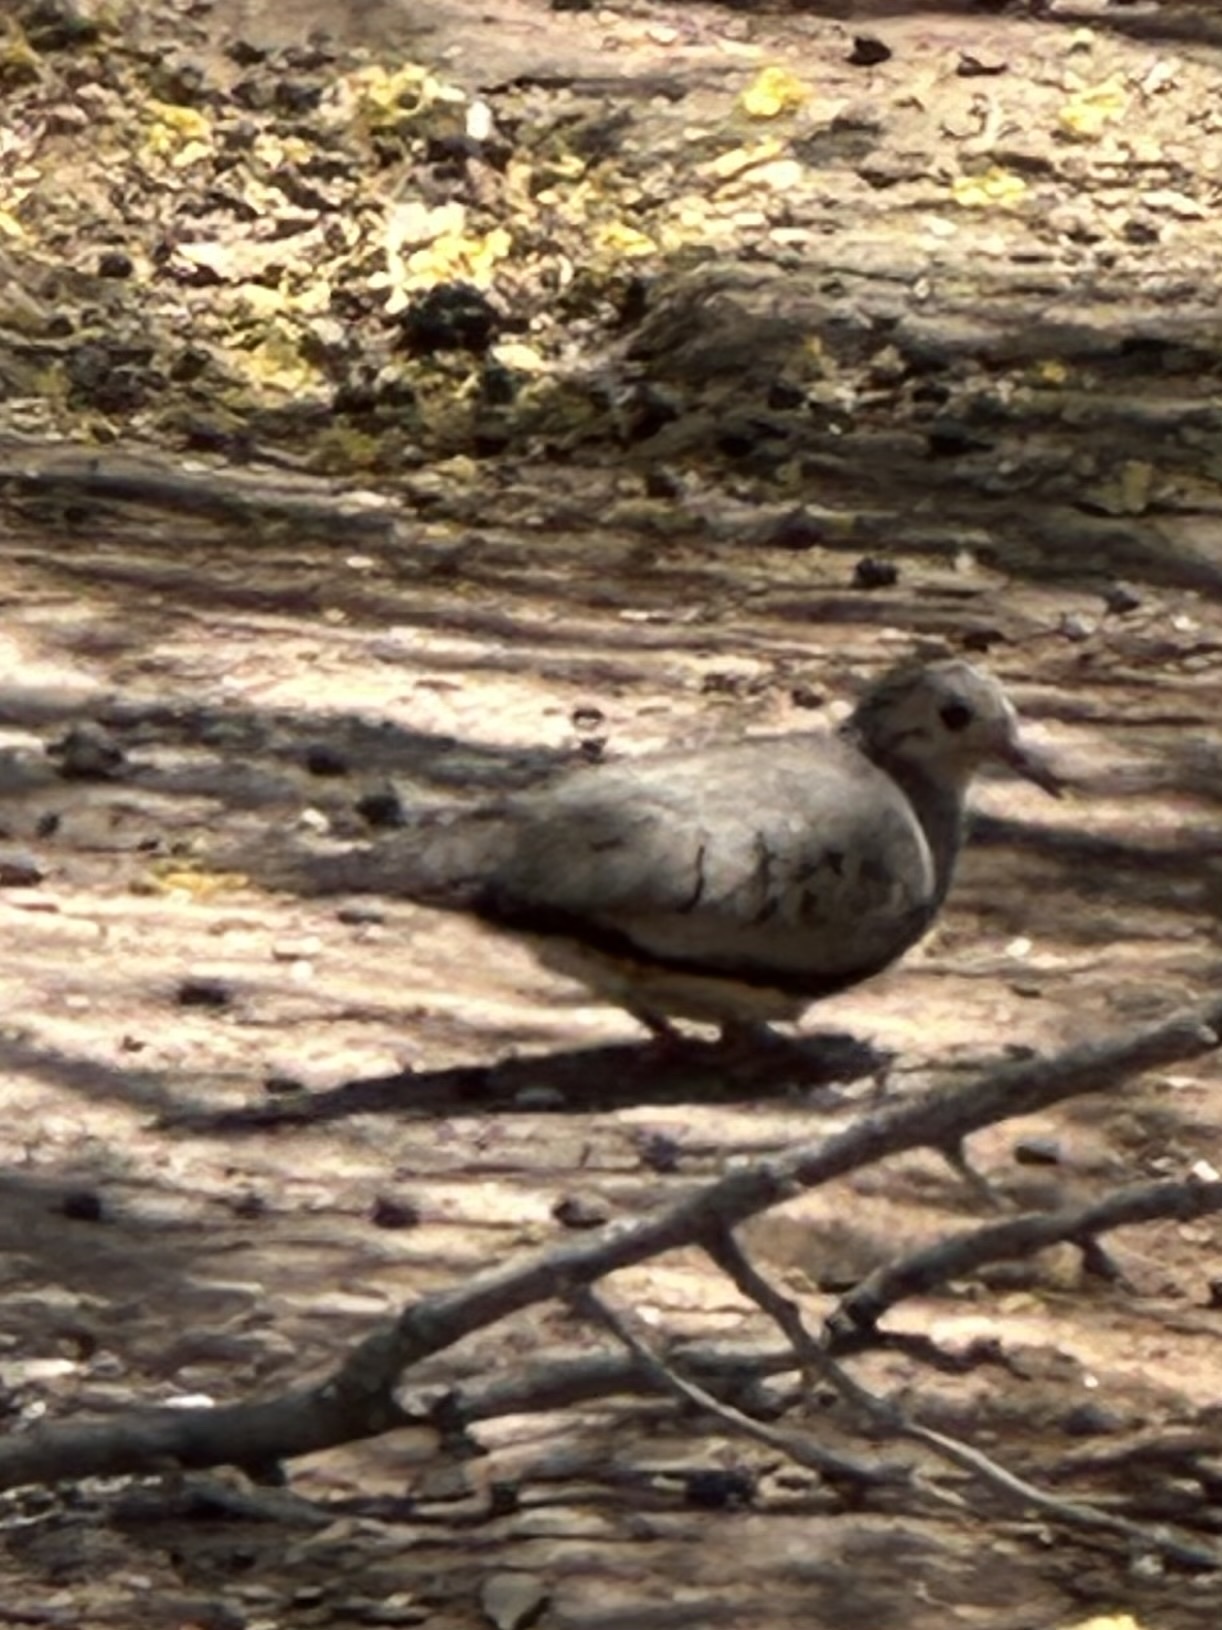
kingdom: Animalia
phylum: Chordata
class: Aves
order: Columbiformes
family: Columbidae
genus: Columbina
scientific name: Columbina passerina
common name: Common ground-dove
